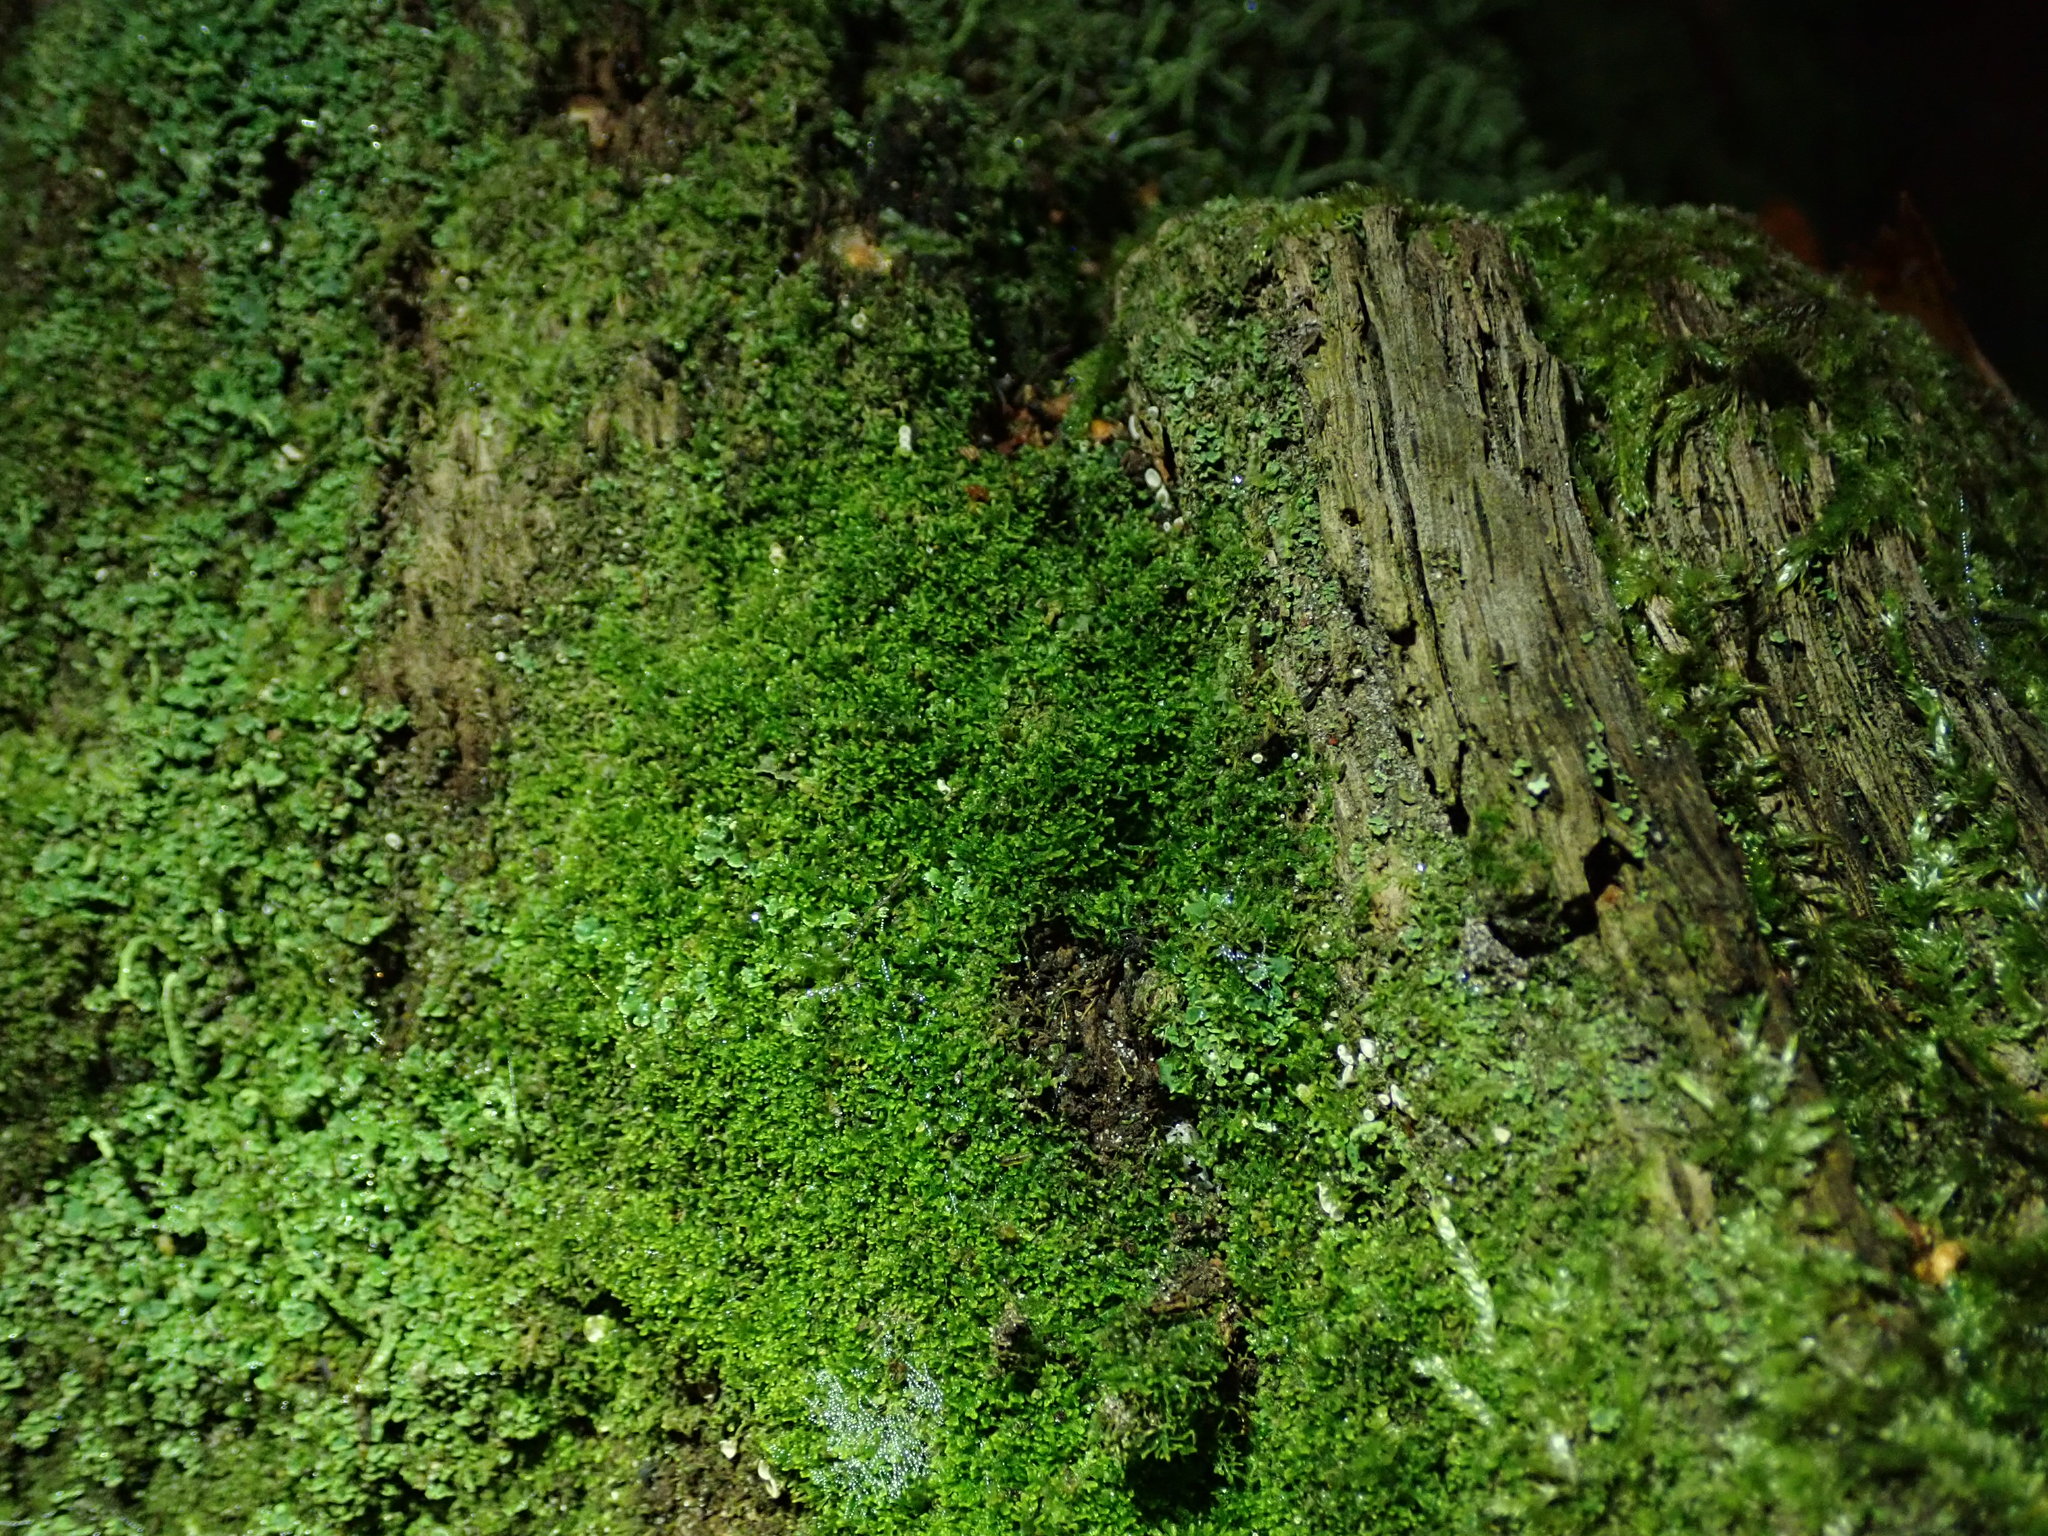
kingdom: Plantae
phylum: Marchantiophyta
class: Jungermanniopsida
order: Jungermanniales
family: Lepidoziaceae
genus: Lepidozia
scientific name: Lepidozia reptans
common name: Creeping fingerwort
